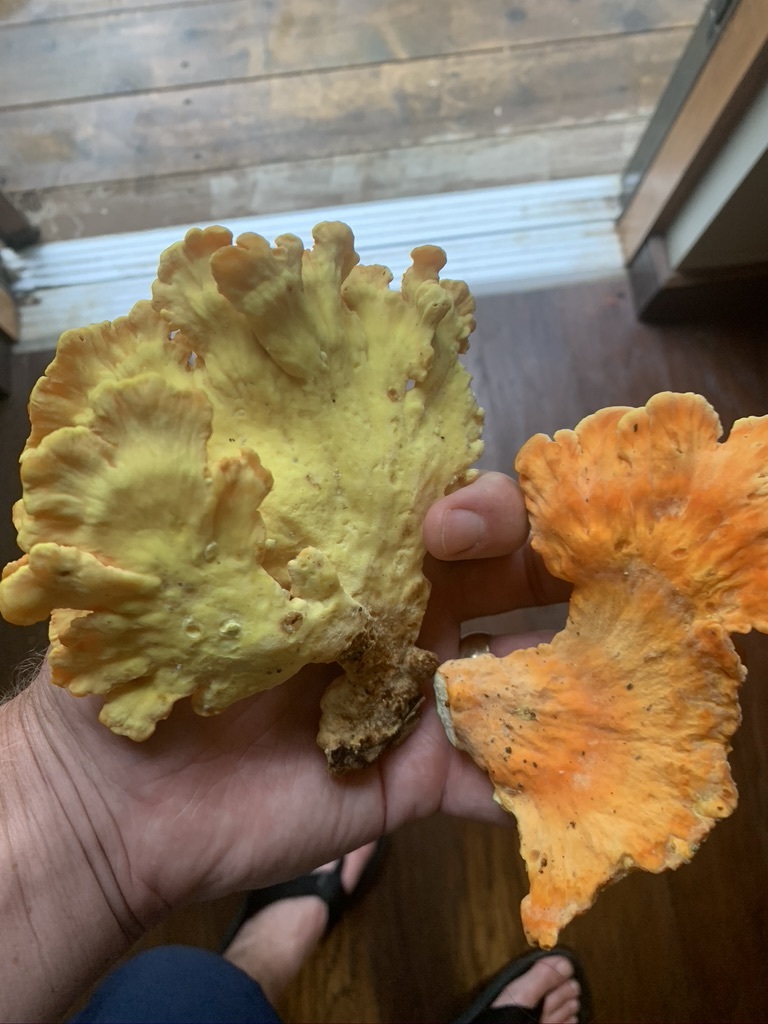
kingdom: Fungi
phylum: Basidiomycota
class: Agaricomycetes
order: Polyporales
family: Laetiporaceae
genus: Laetiporus
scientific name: Laetiporus sulphureus
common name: Chicken of the woods
